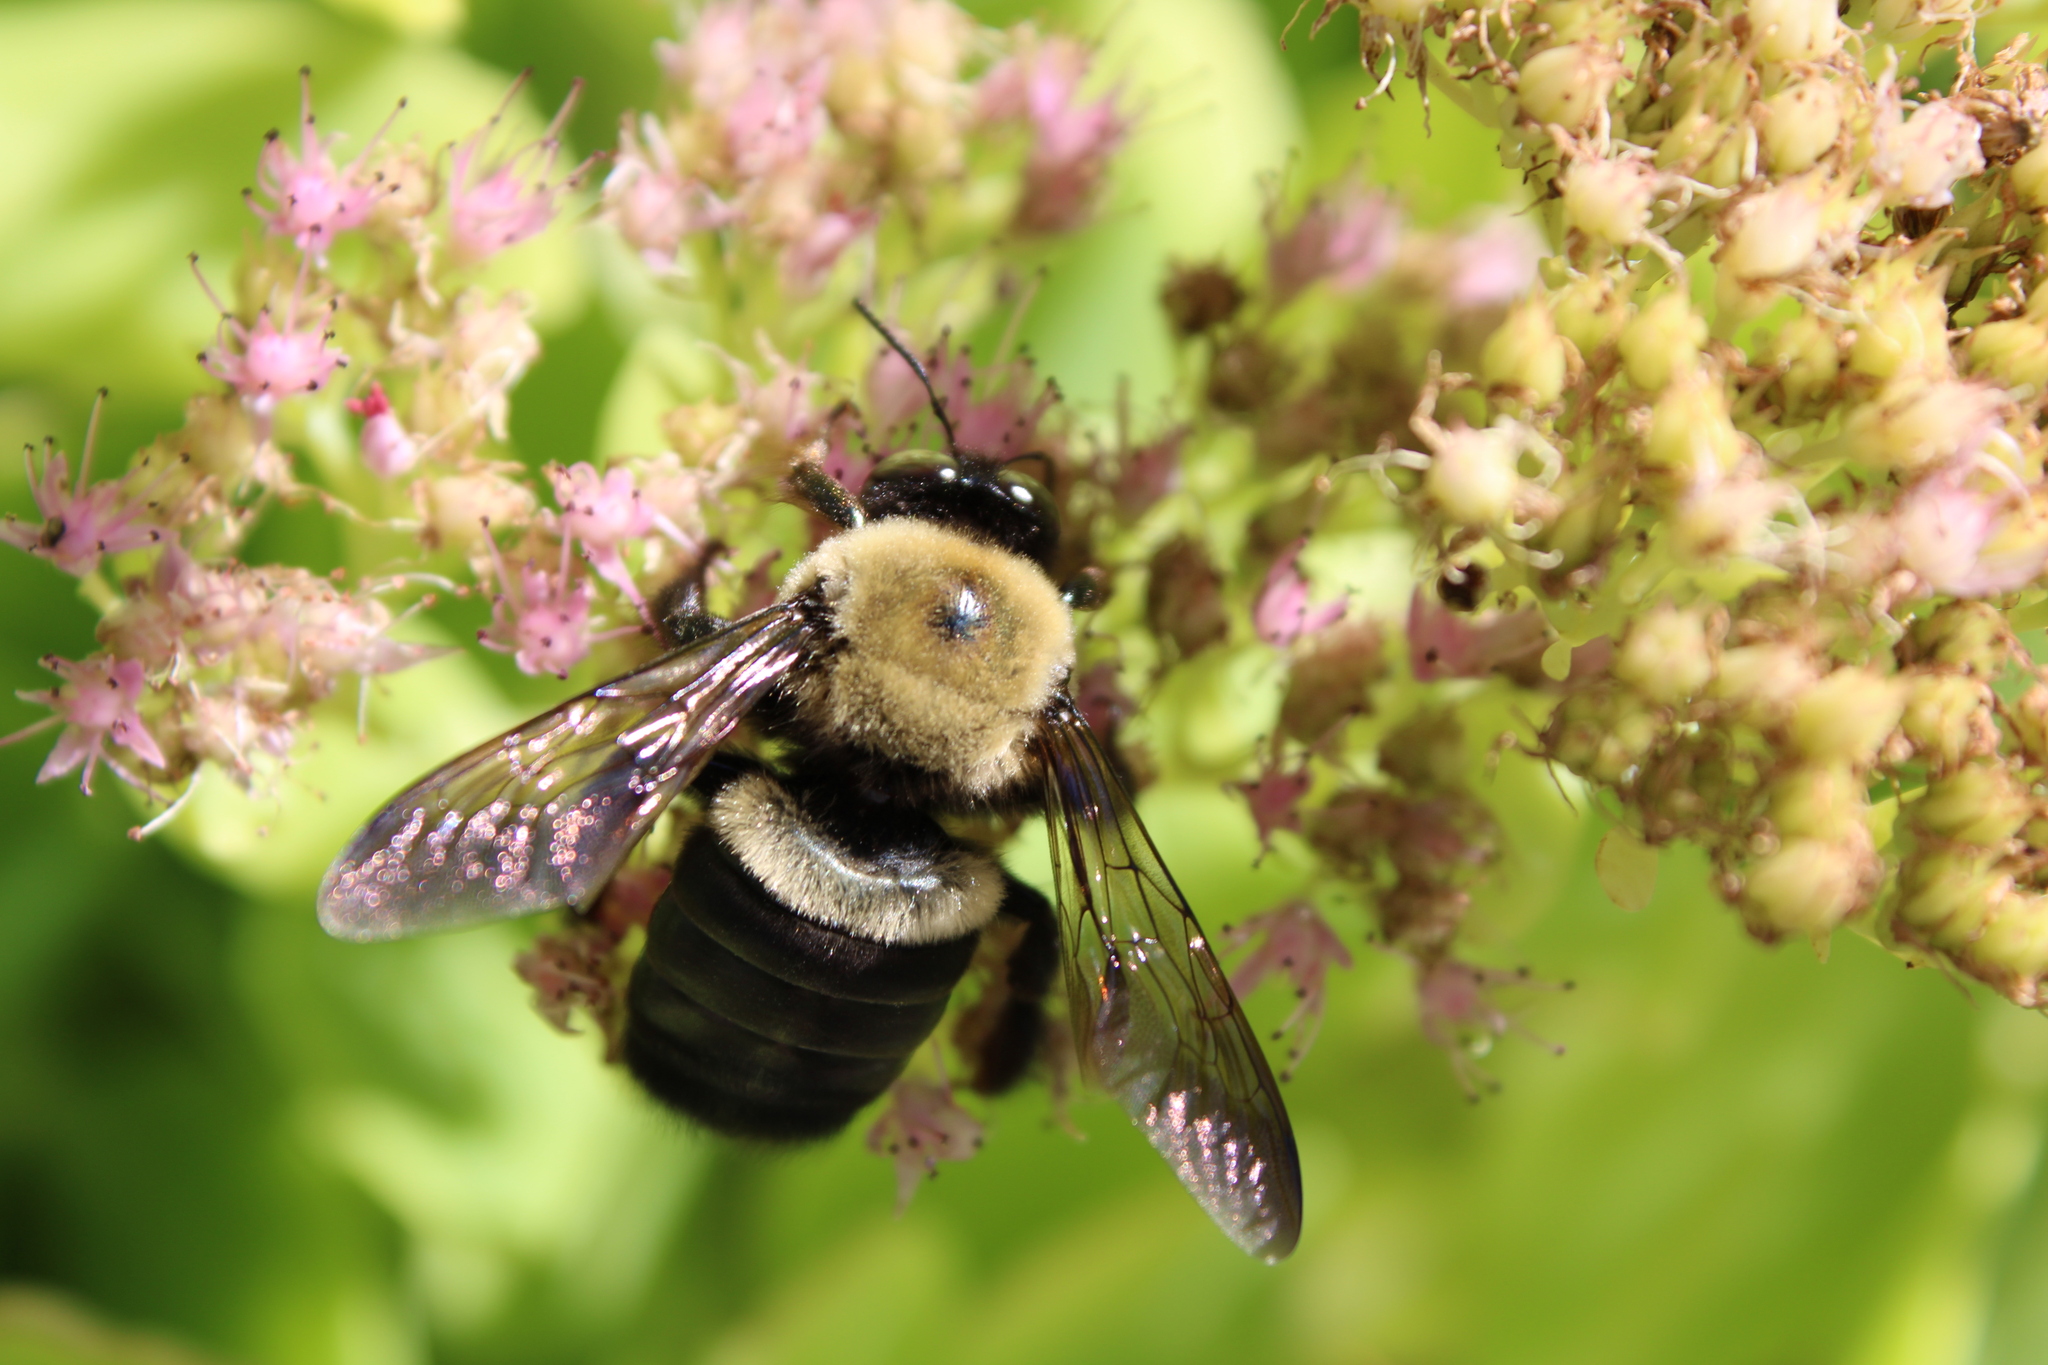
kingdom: Animalia
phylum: Arthropoda
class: Insecta
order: Hymenoptera
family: Apidae
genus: Xylocopa
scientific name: Xylocopa virginica
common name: Carpenter bee
